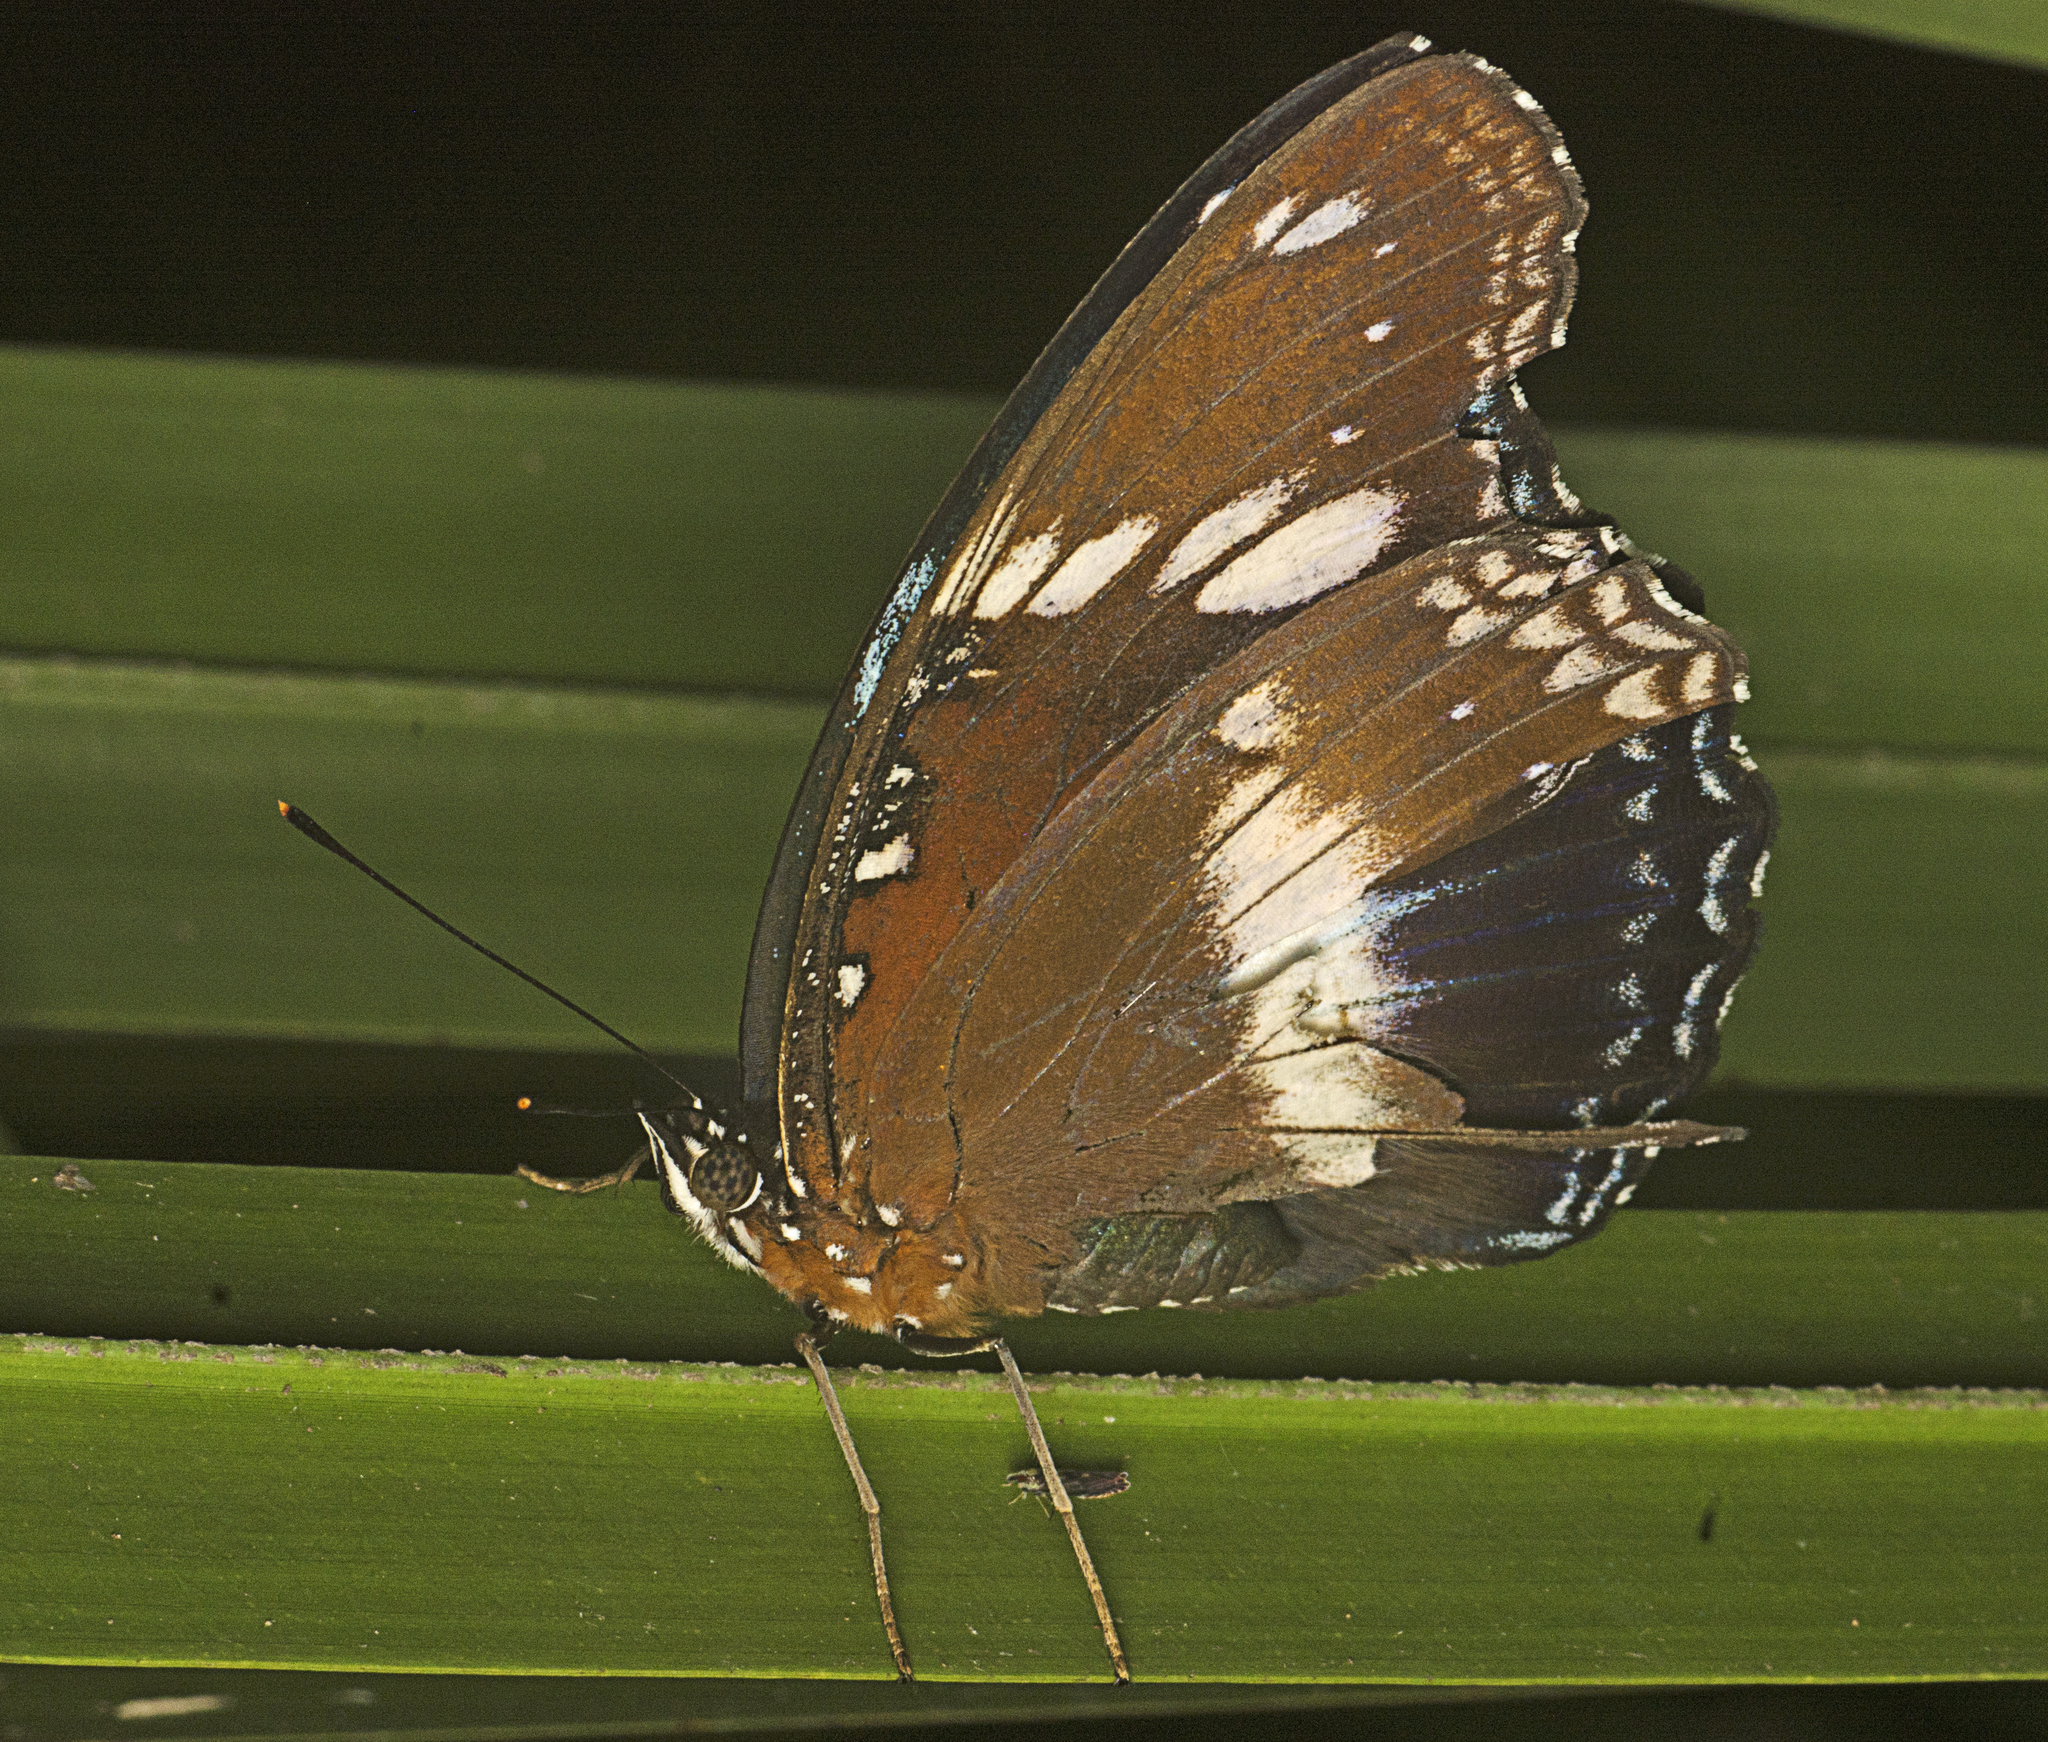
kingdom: Animalia
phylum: Arthropoda
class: Insecta
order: Lepidoptera
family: Nymphalidae
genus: Hypolimnas
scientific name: Hypolimnas bolina
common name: Great eggfly
